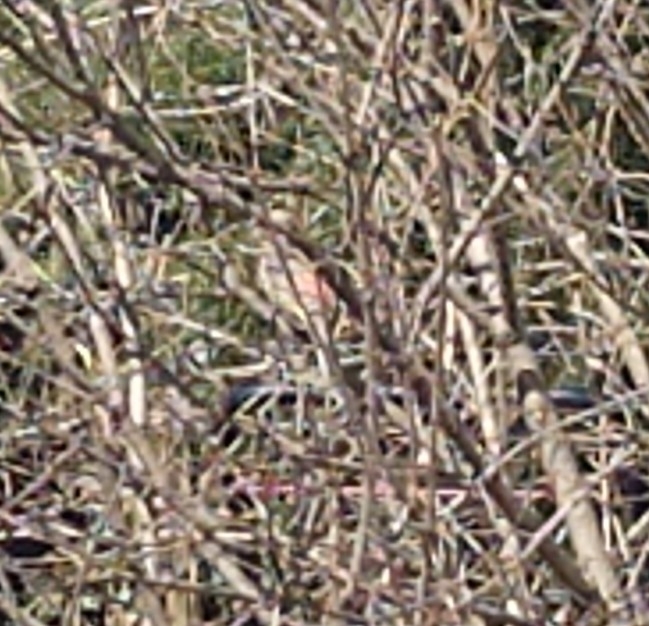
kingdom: Animalia
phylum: Chordata
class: Aves
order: Passeriformes
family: Fringillidae
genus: Haemorhous
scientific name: Haemorhous mexicanus
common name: House finch
